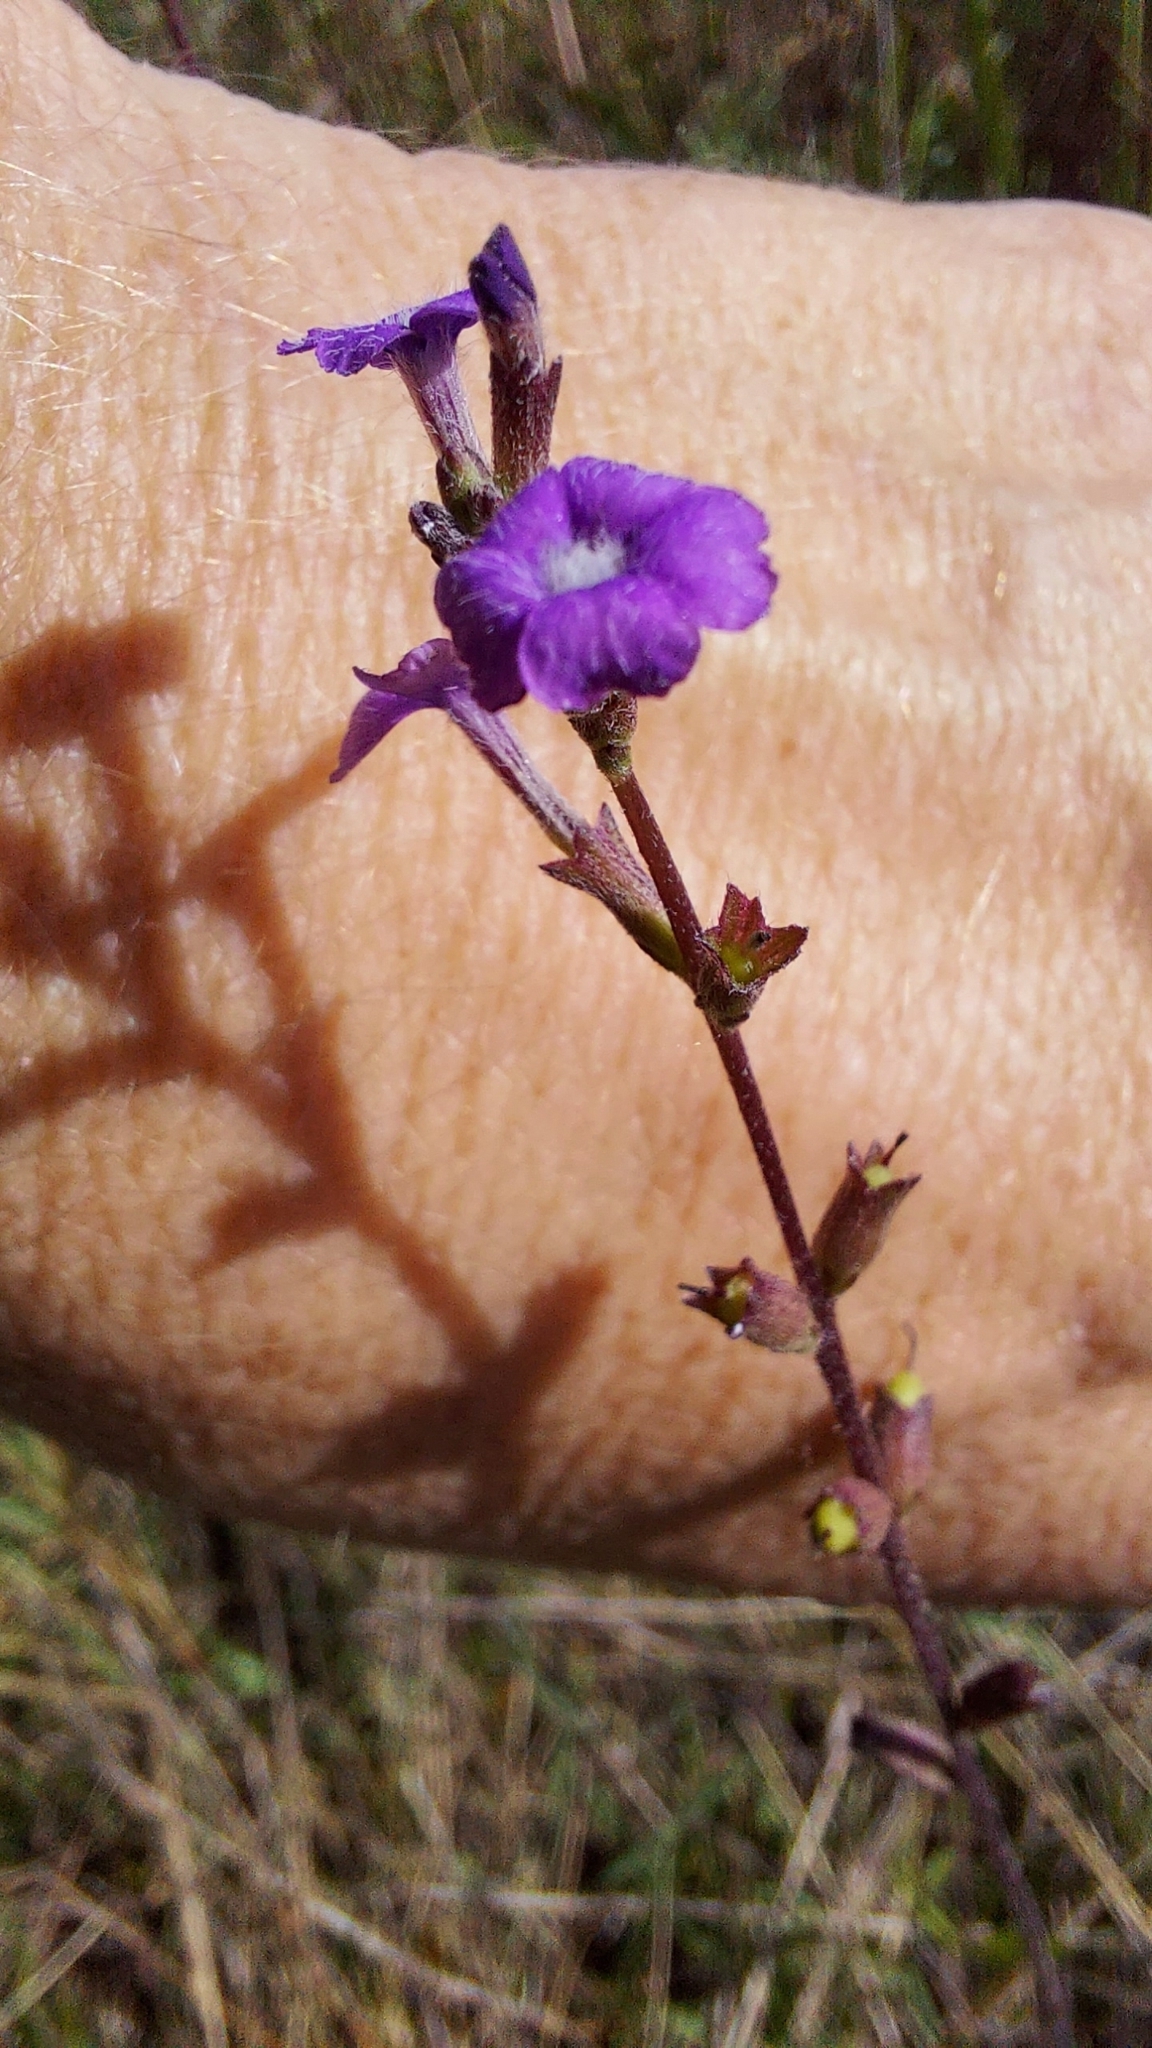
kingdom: Plantae
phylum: Tracheophyta
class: Magnoliopsida
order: Lamiales
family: Orobanchaceae
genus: Buchnera
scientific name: Buchnera floridana
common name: Florida bluehearts
